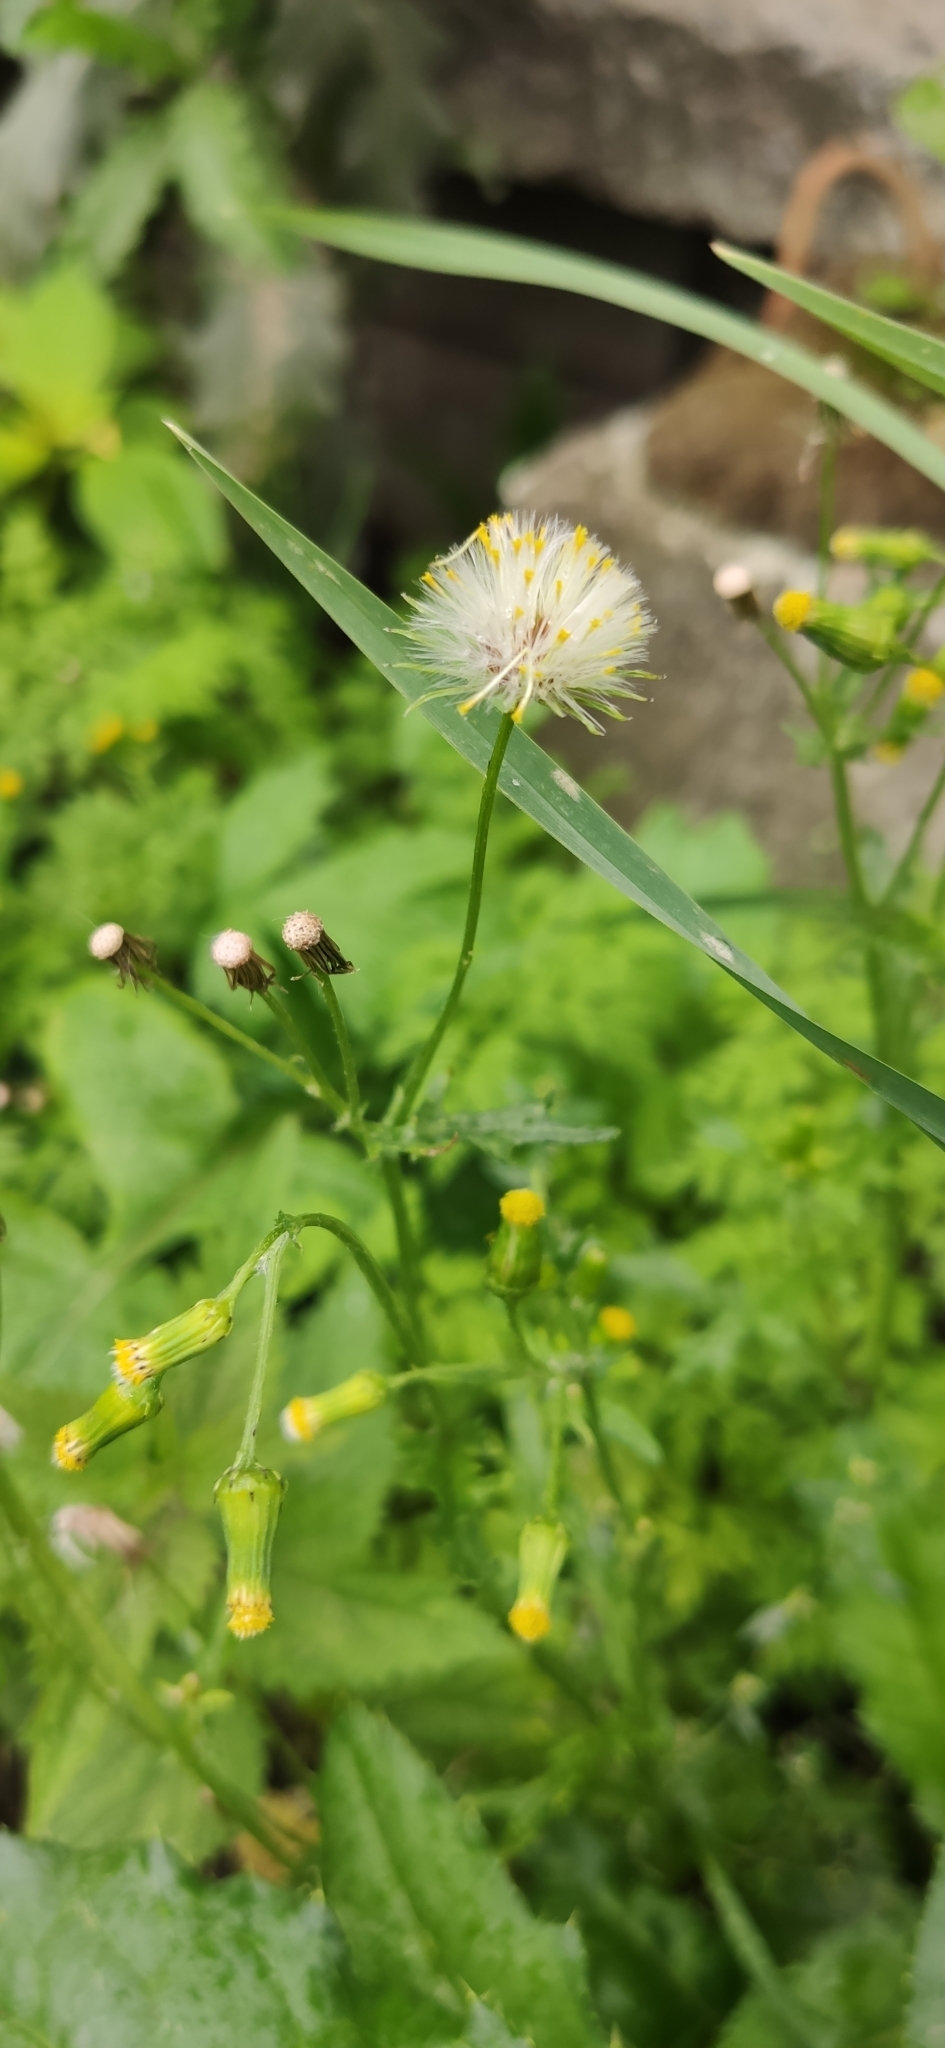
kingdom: Plantae
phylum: Tracheophyta
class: Magnoliopsida
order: Asterales
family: Asteraceae
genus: Senecio
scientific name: Senecio vulgaris
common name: Old-man-in-the-spring
